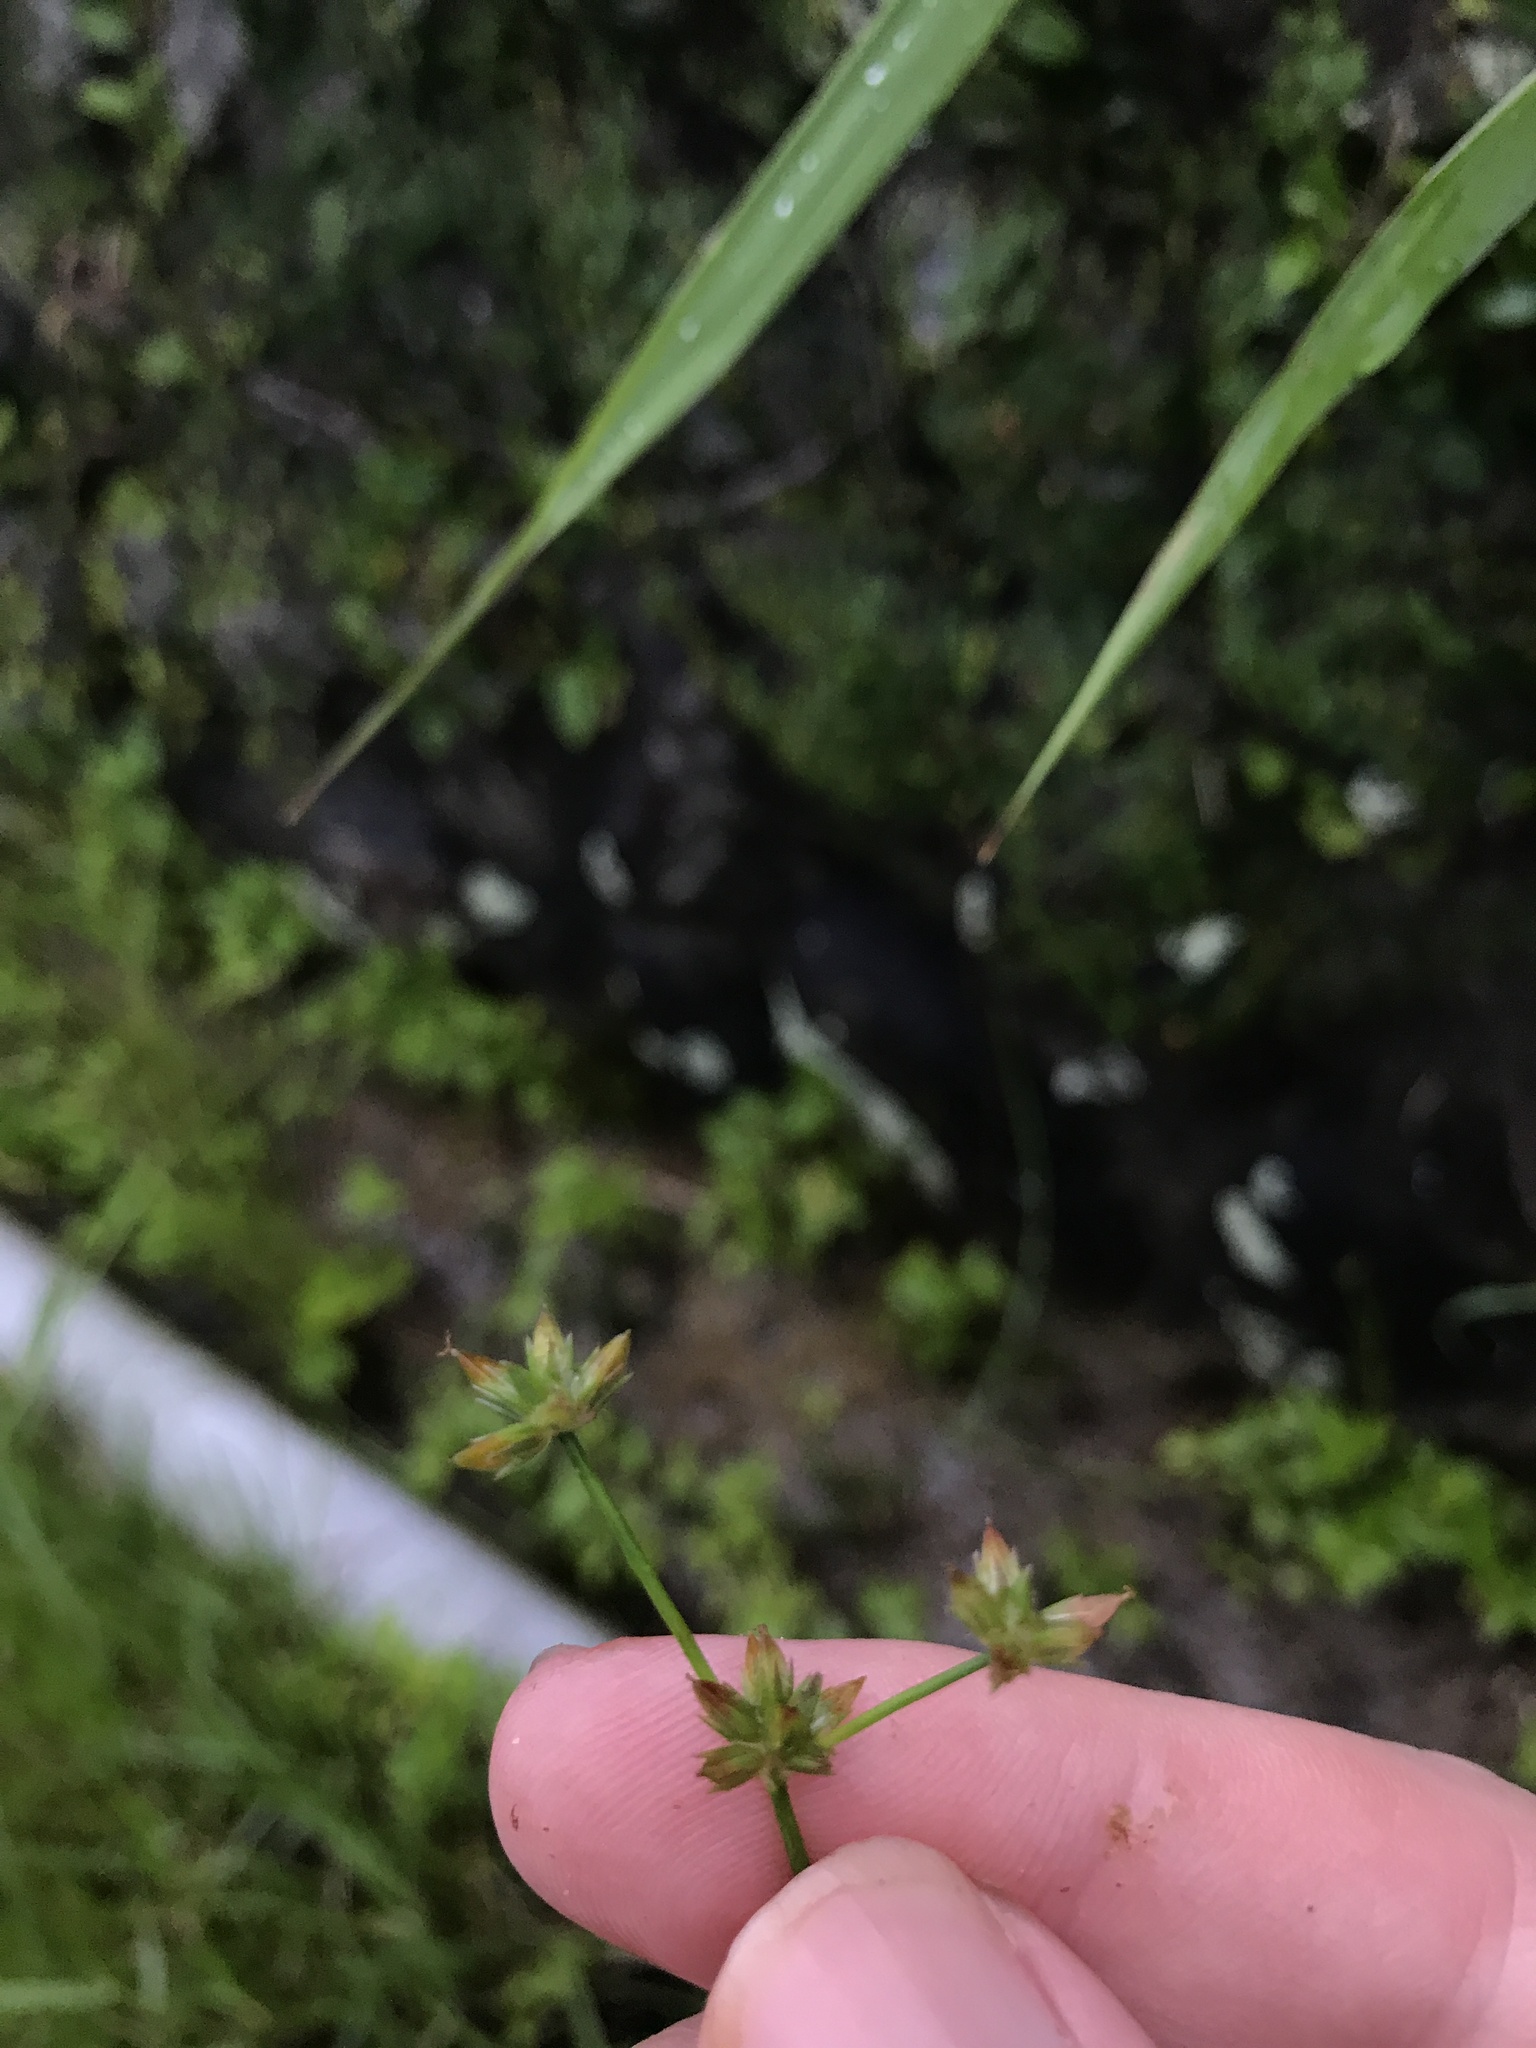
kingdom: Plantae
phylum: Tracheophyta
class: Liliopsida
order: Poales
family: Juncaceae
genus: Juncus
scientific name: Juncus prismatocarpus
